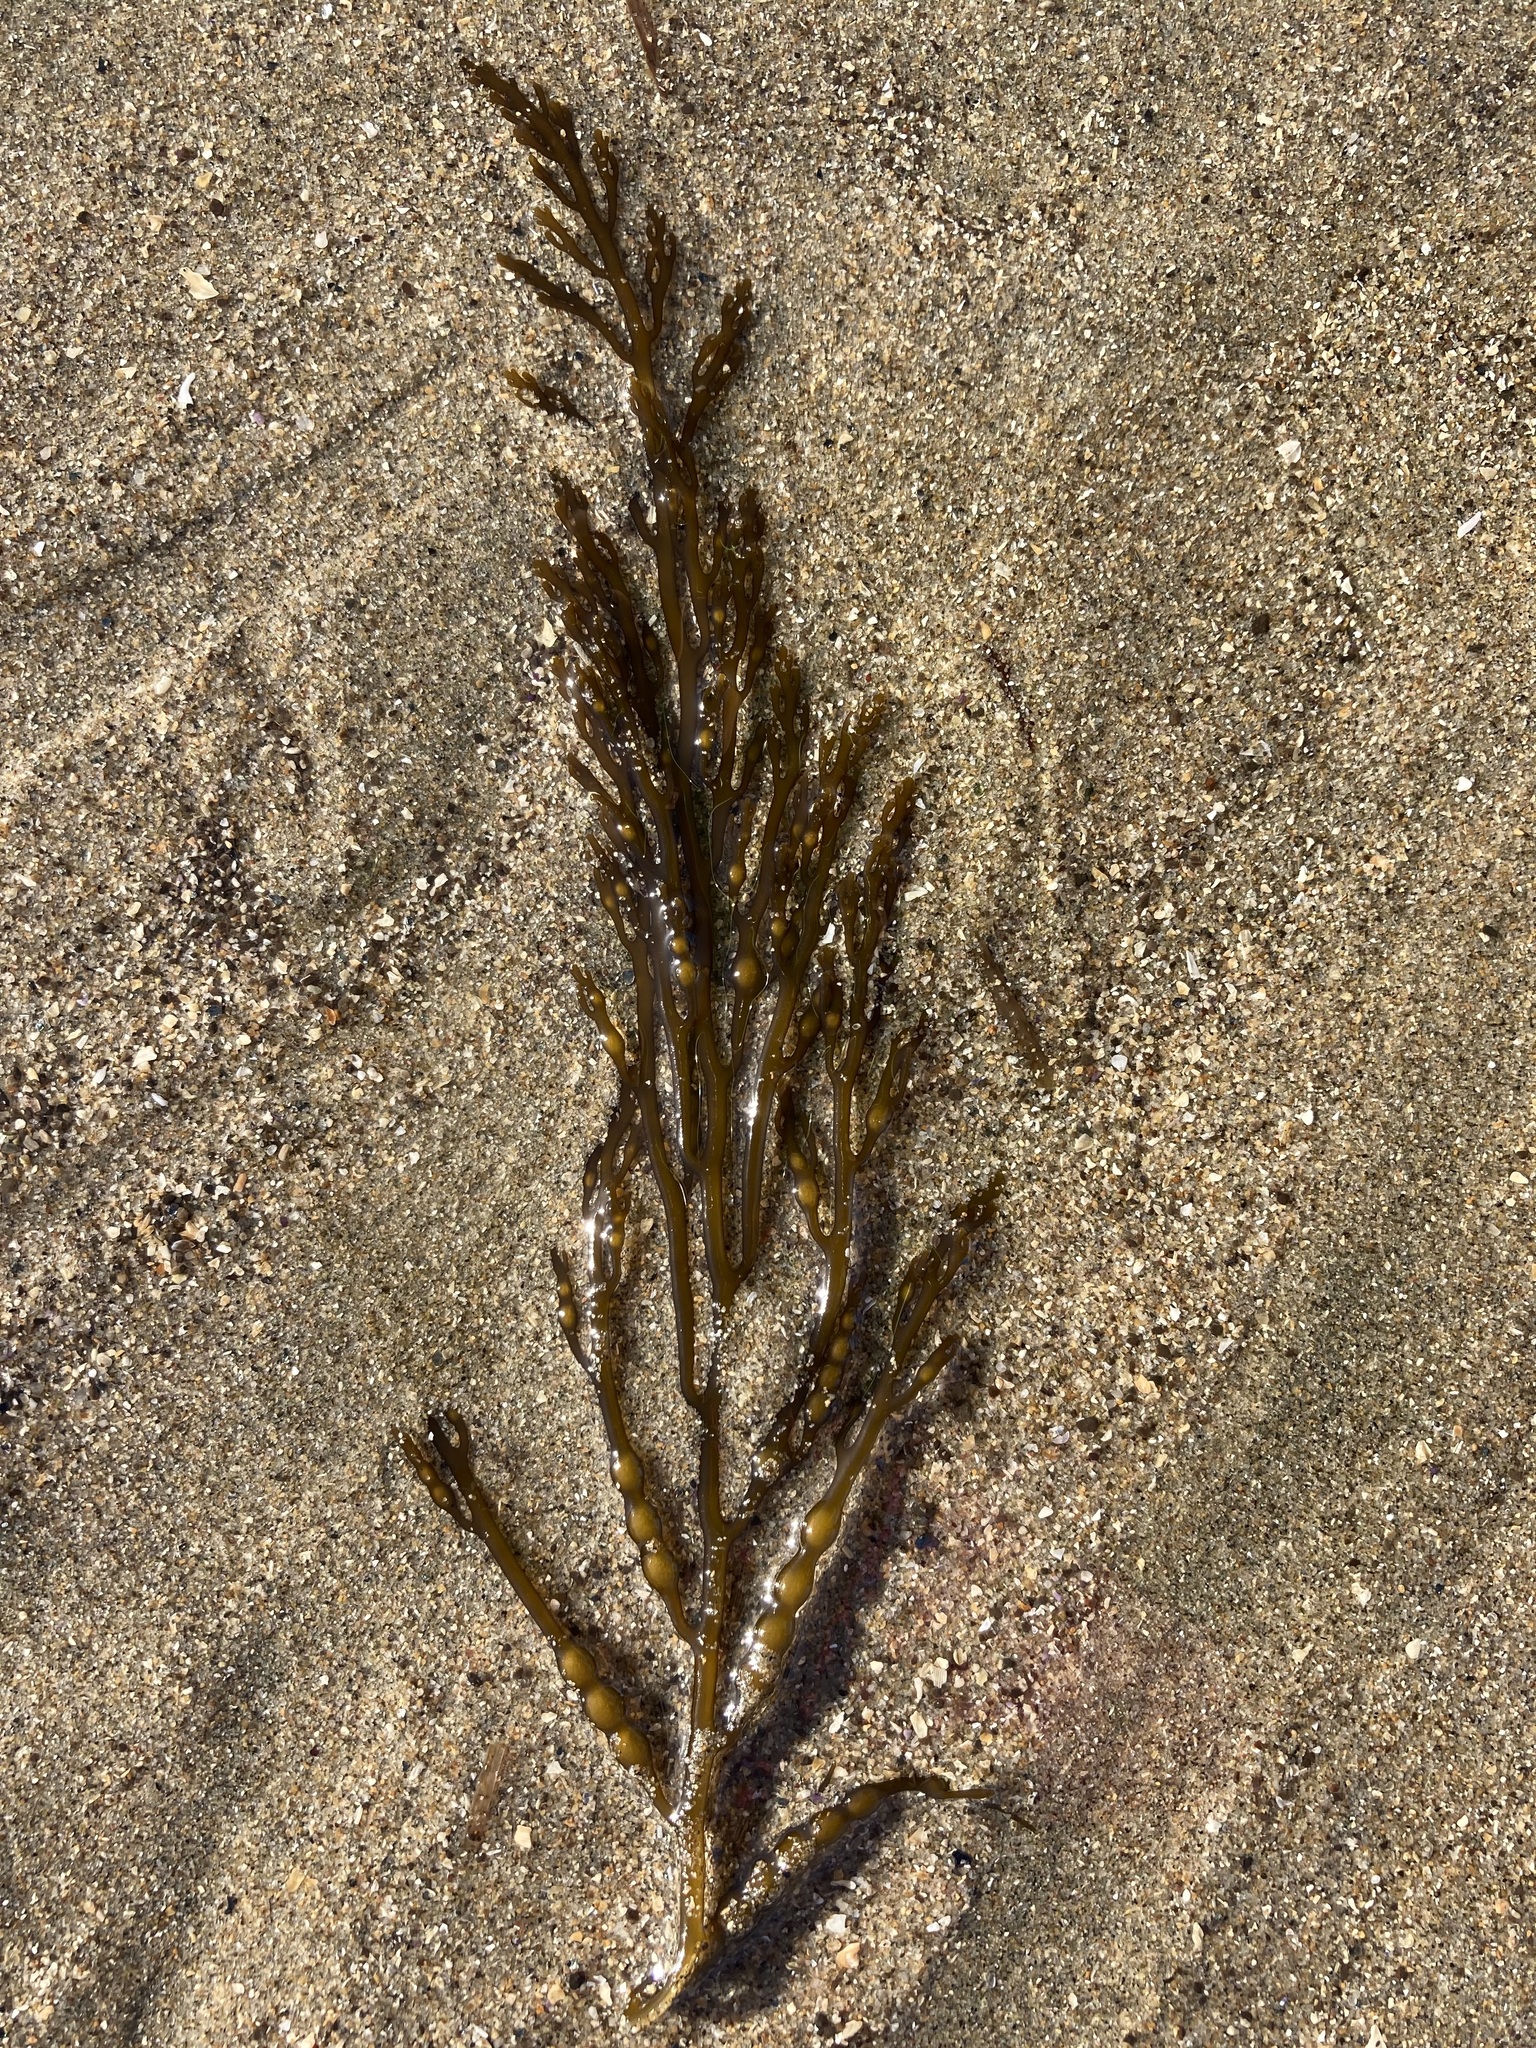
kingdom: Chromista
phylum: Ochrophyta
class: Phaeophyceae
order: Fucales
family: Sargassaceae
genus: Stephanocystis
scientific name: Stephanocystis
